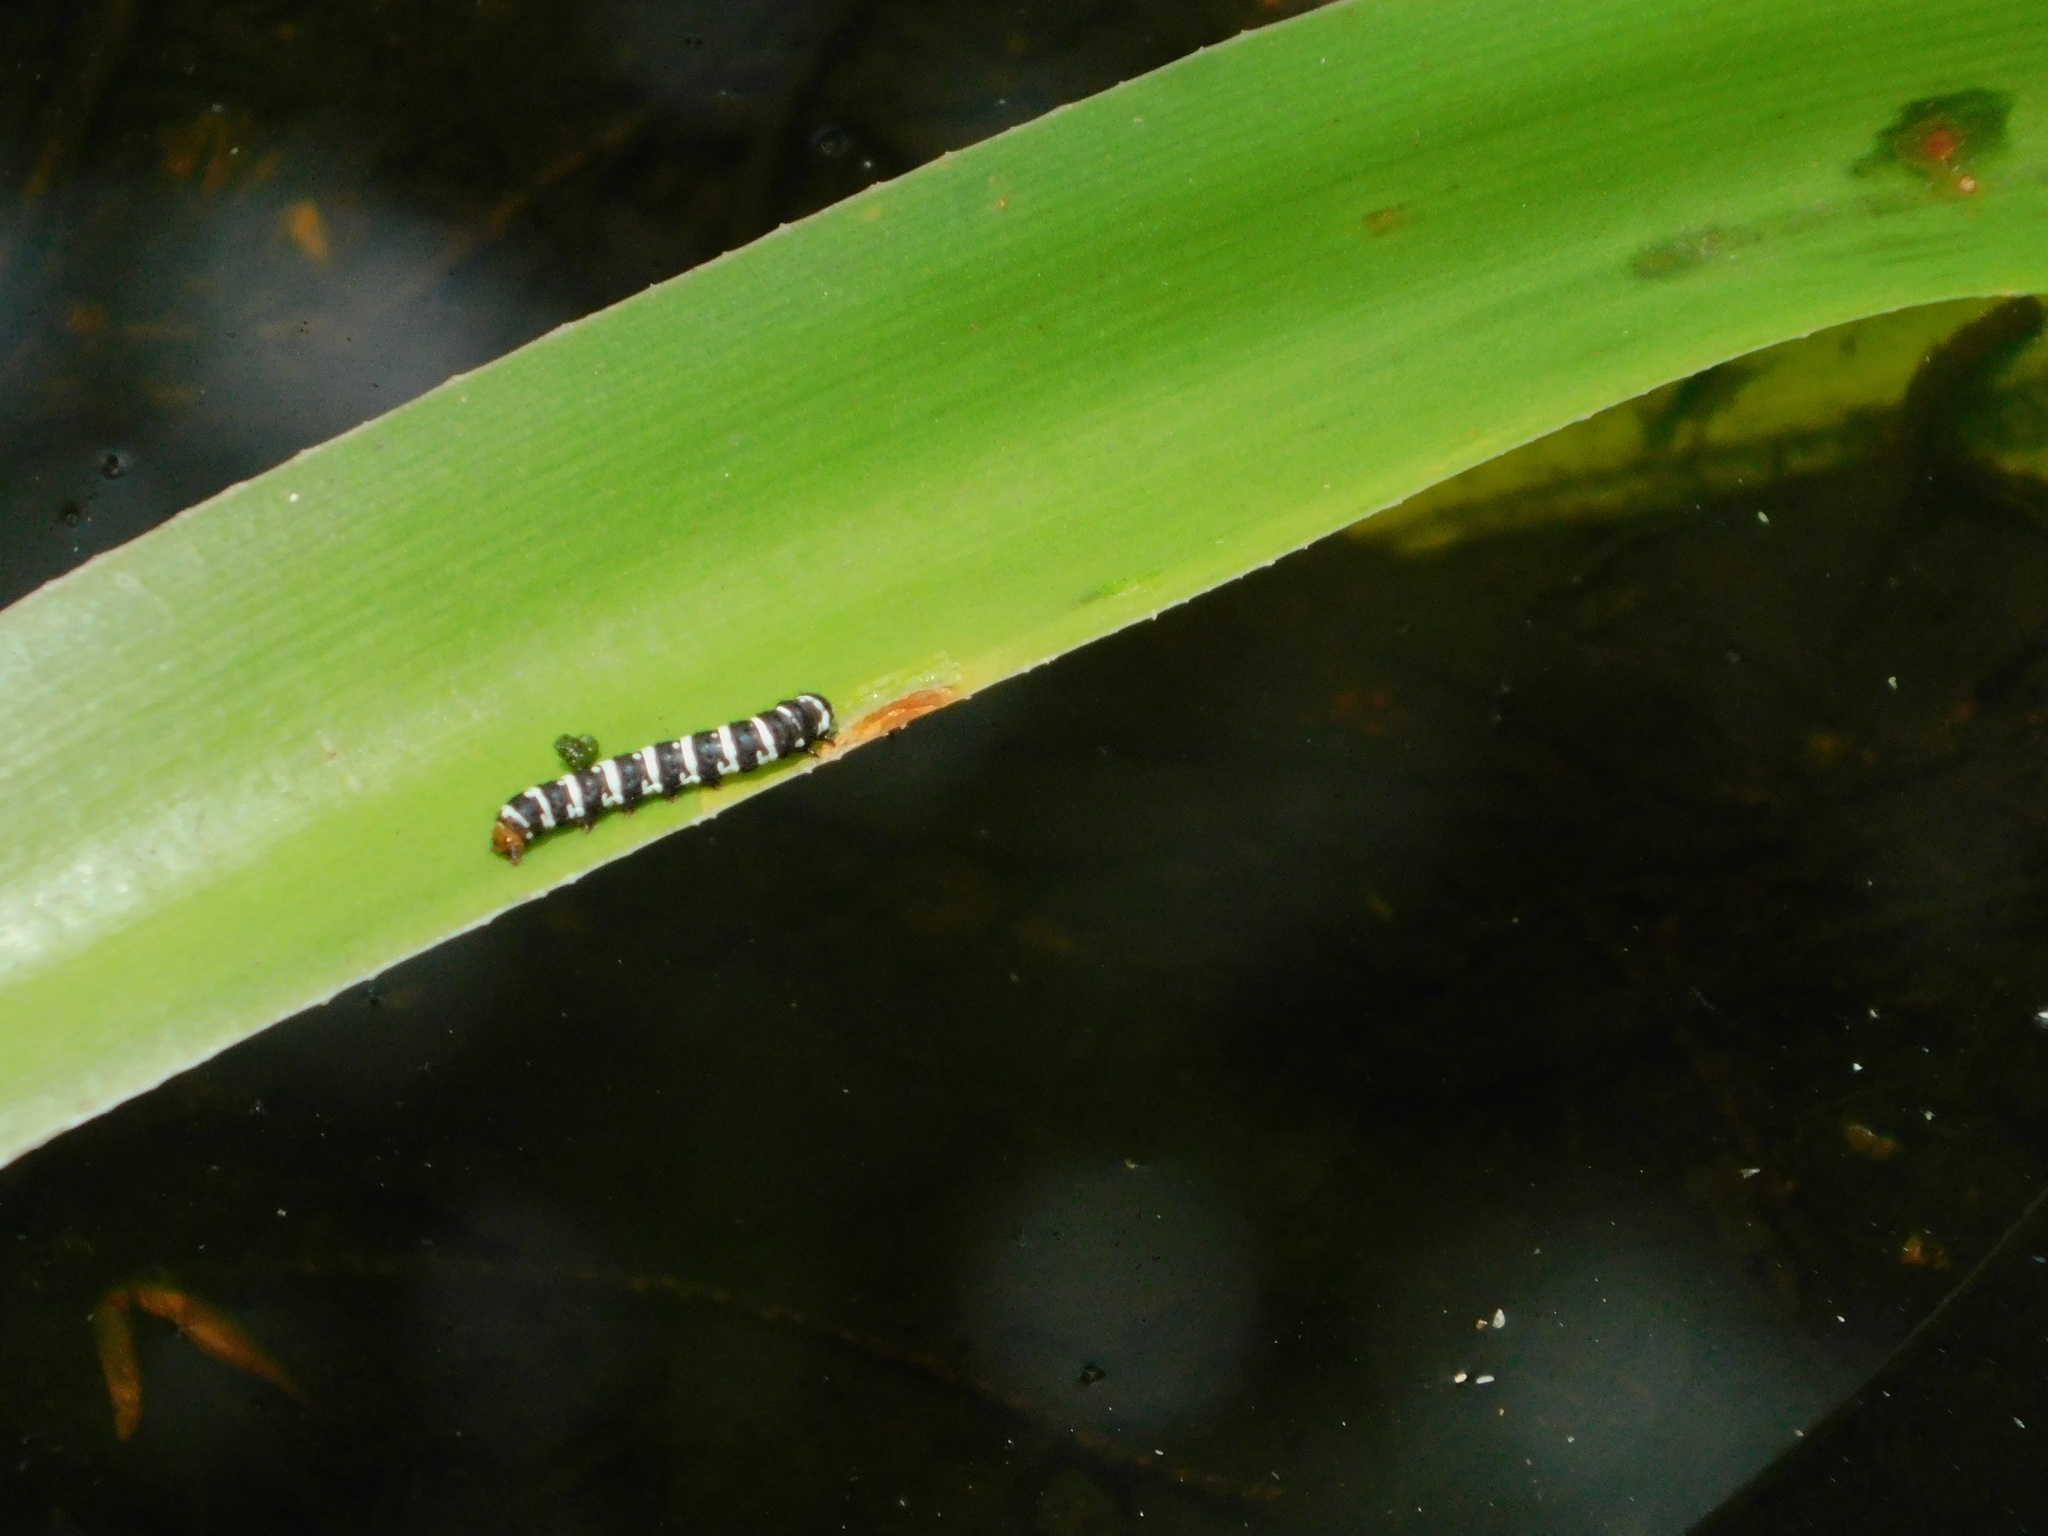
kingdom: Animalia
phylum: Arthropoda
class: Insecta
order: Lepidoptera
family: Noctuidae
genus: Xanthopastis
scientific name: Xanthopastis regnatrix
